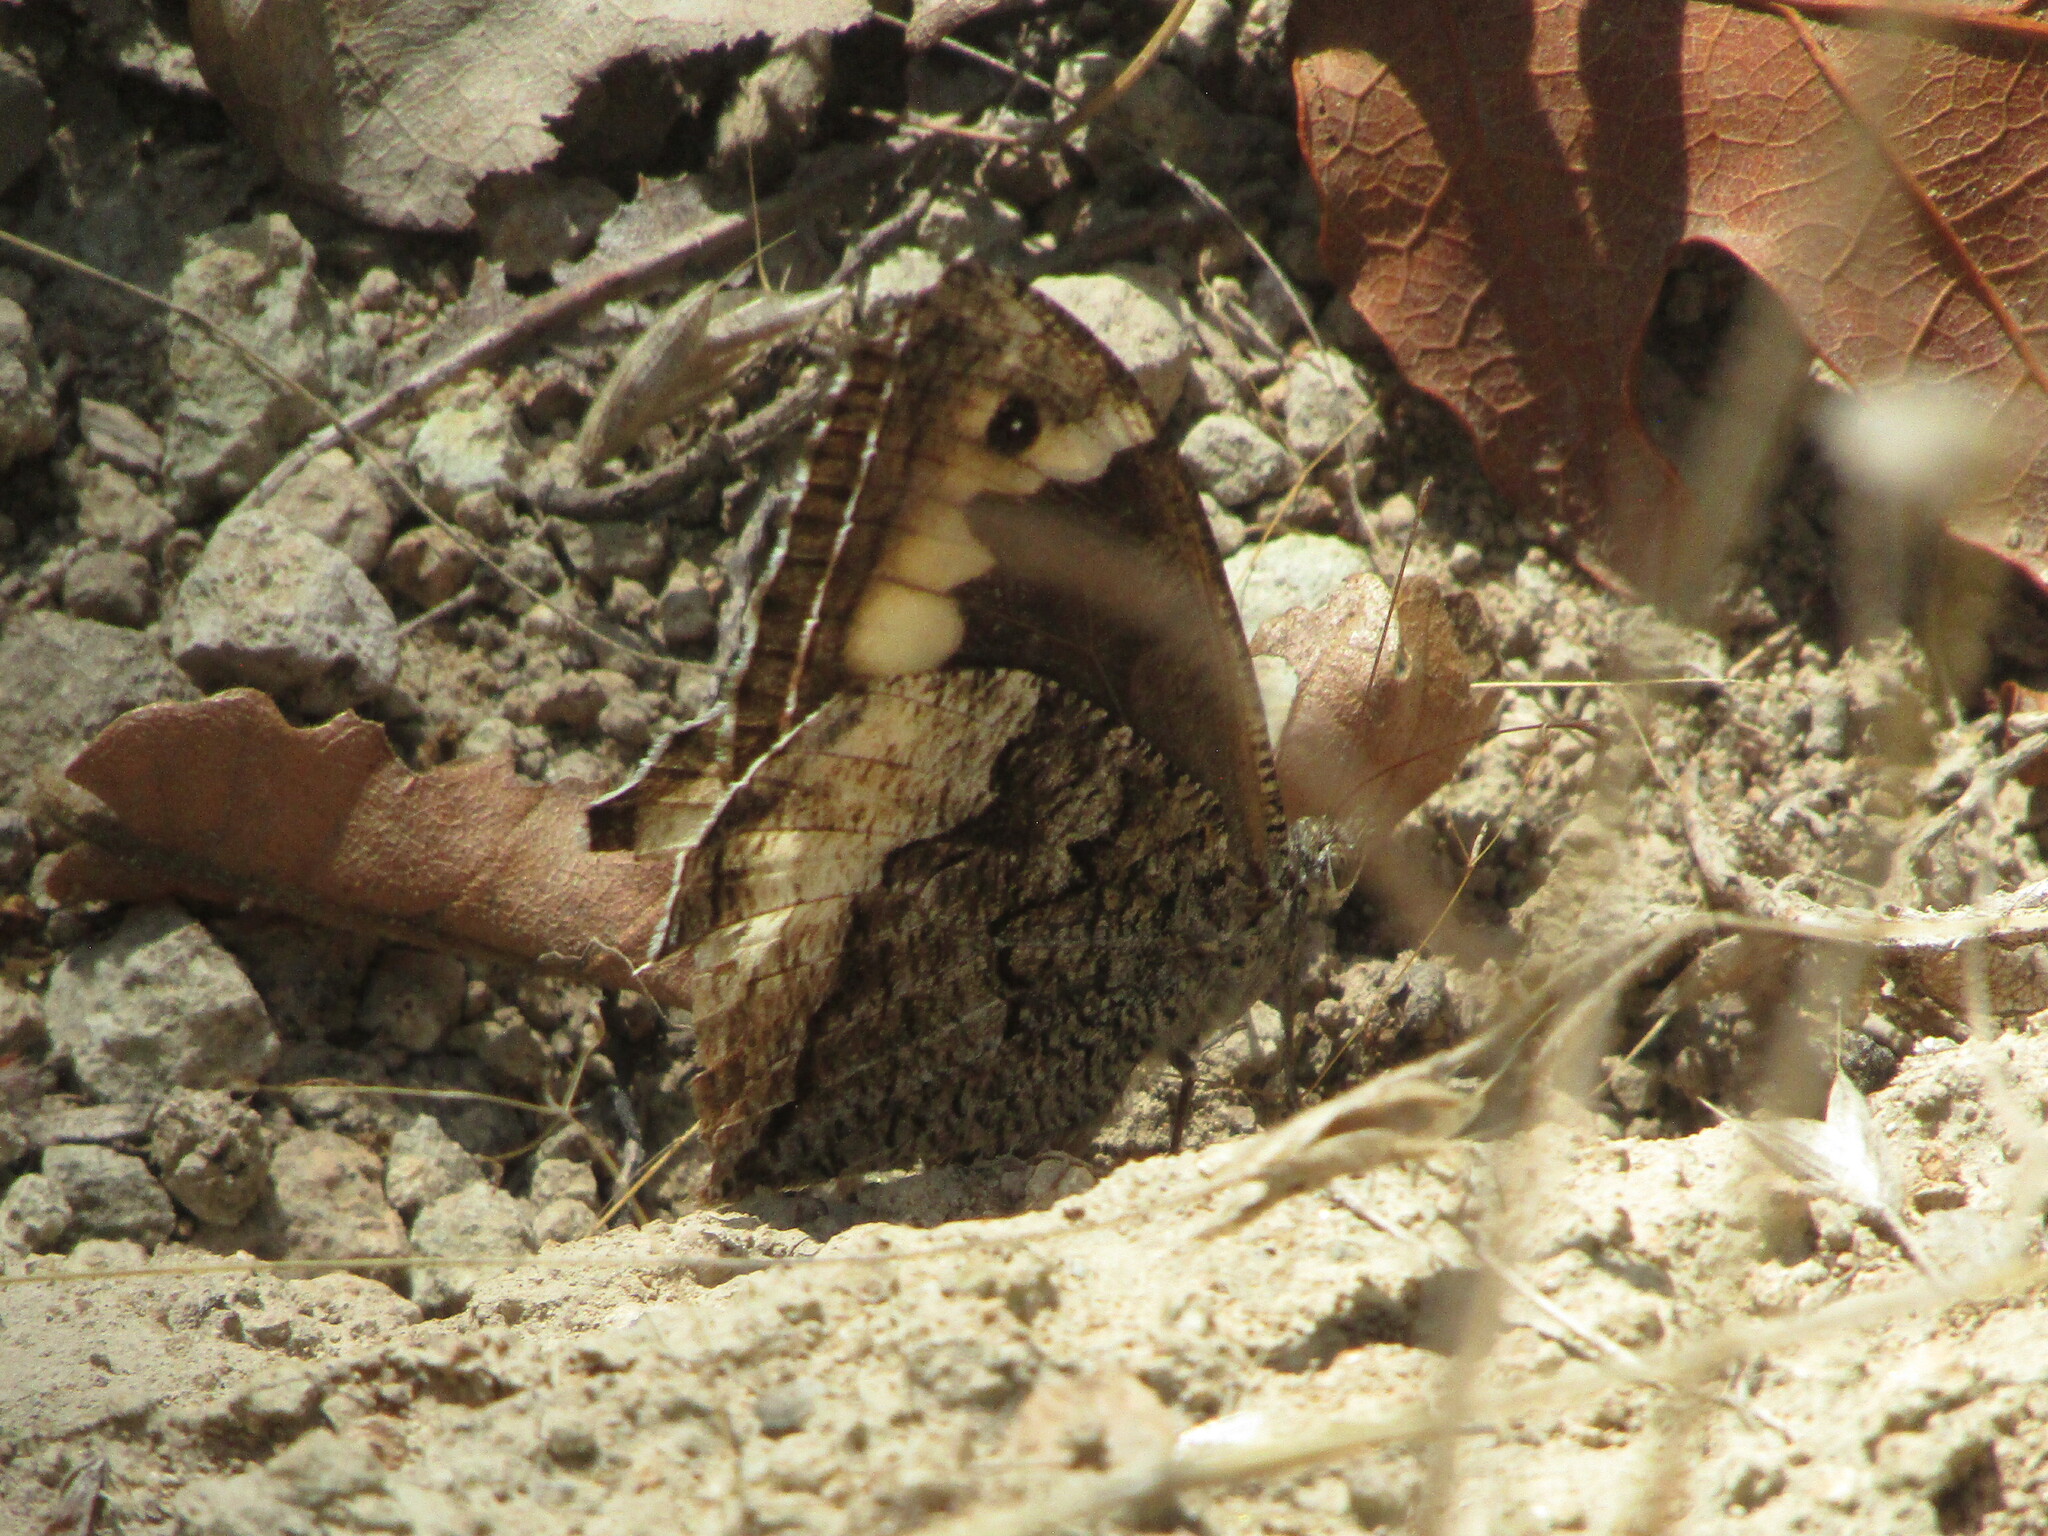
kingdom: Animalia
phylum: Arthropoda
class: Insecta
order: Lepidoptera
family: Nymphalidae
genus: Hipparchia
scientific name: Hipparchia
